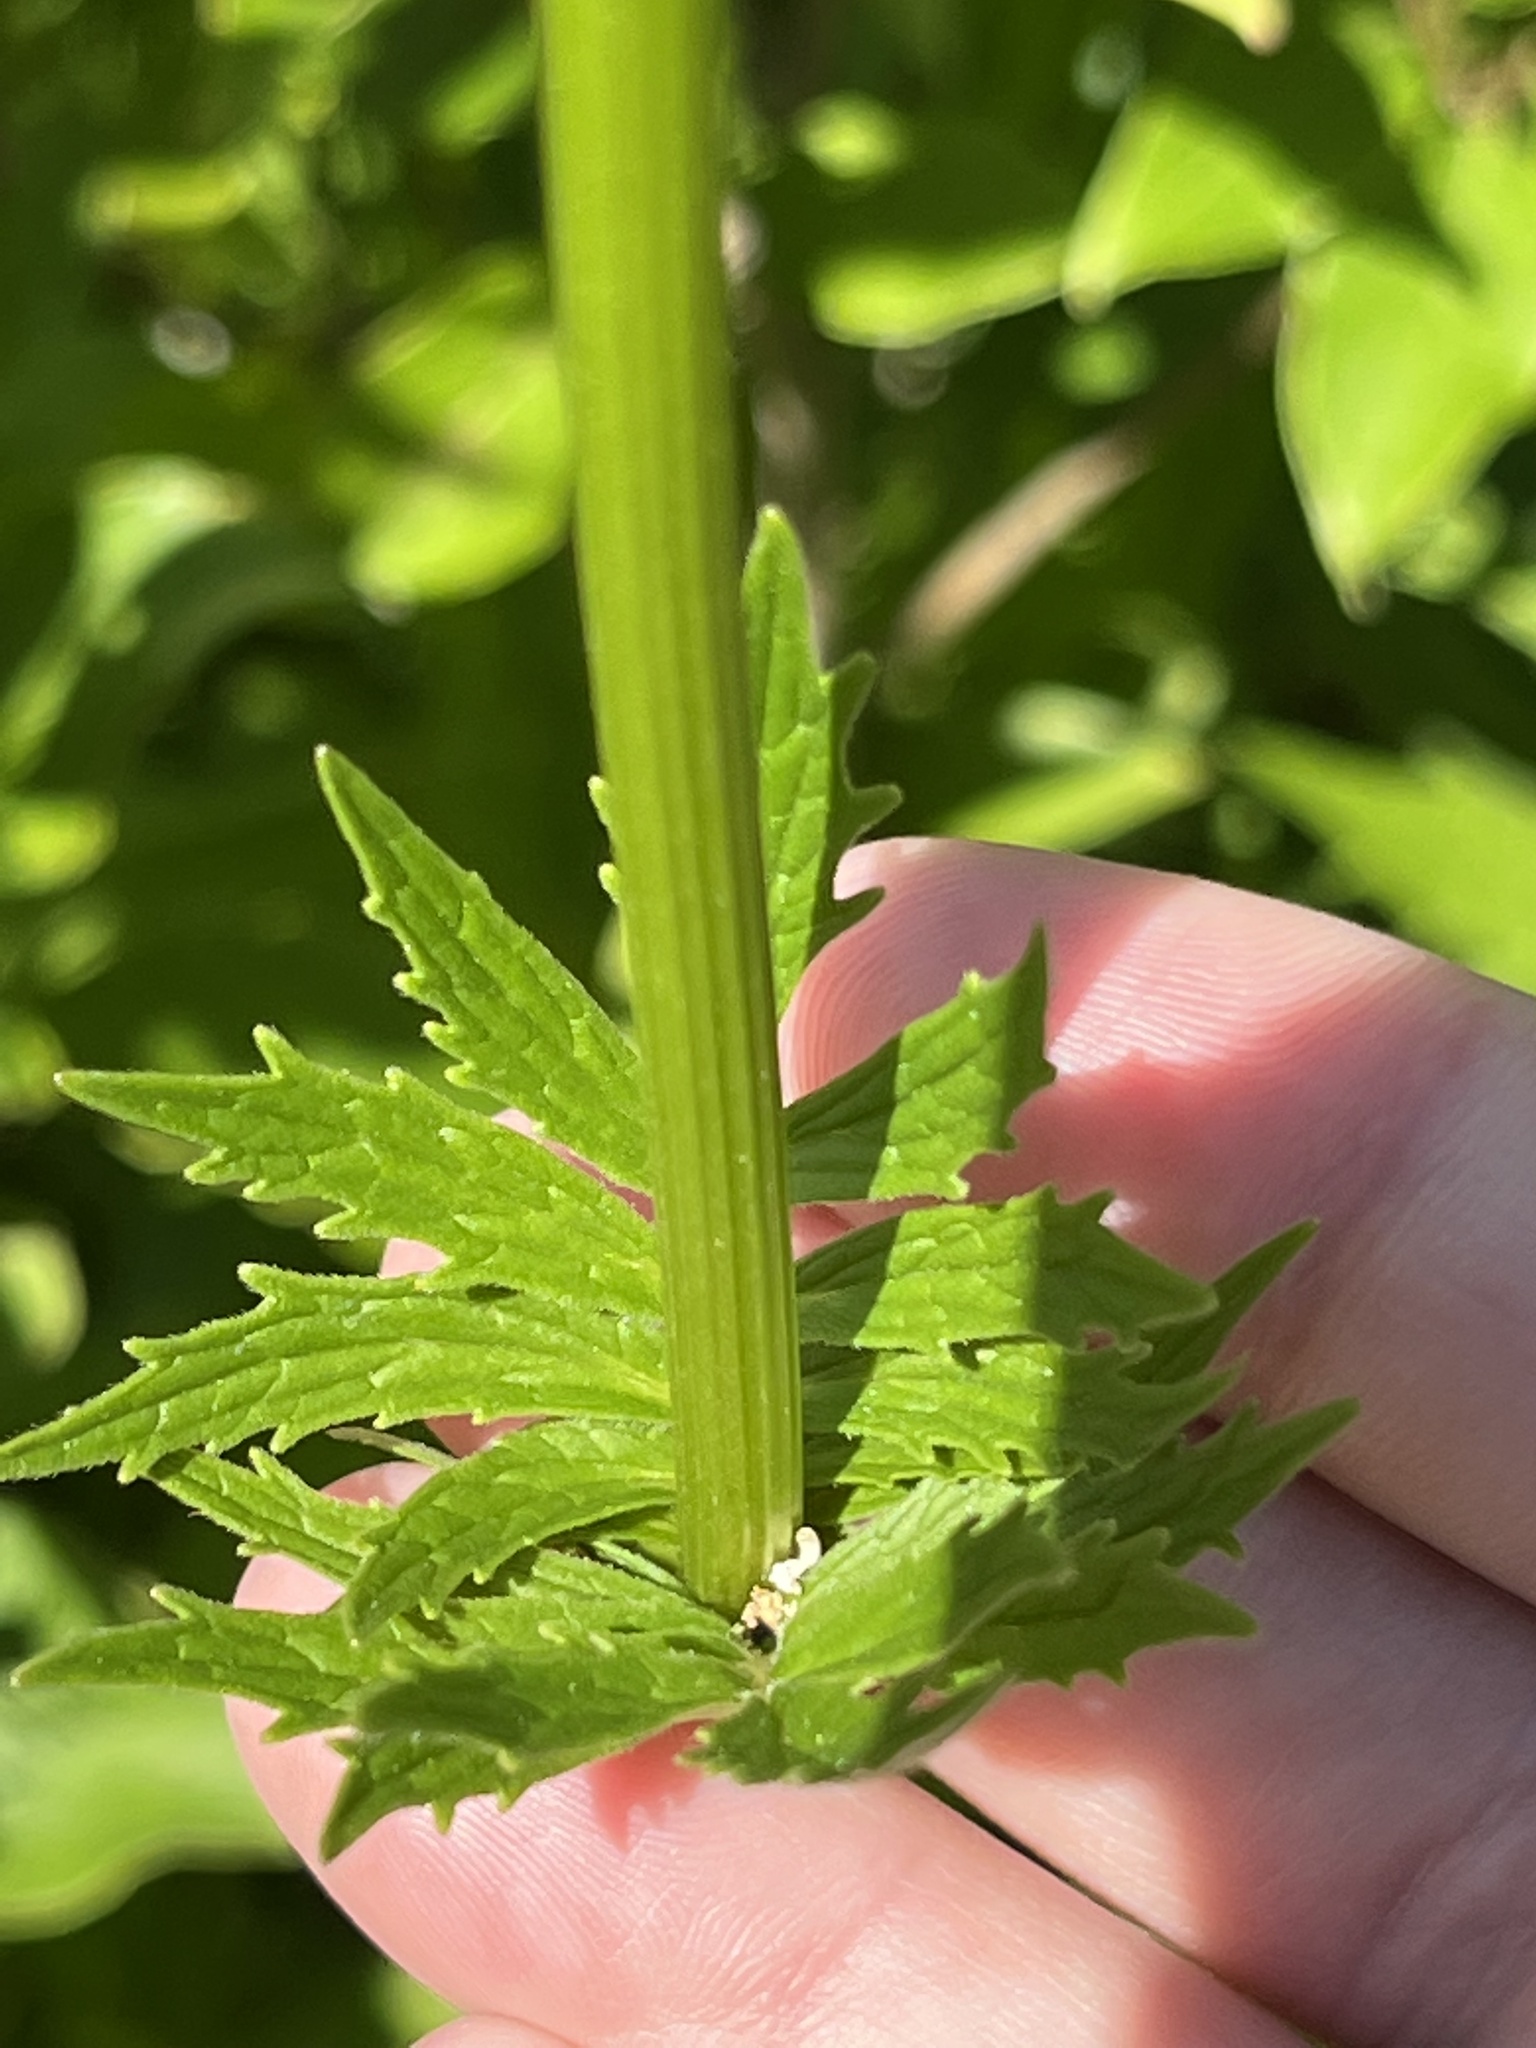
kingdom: Plantae
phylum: Tracheophyta
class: Magnoliopsida
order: Dipsacales
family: Caprifoliaceae
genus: Valeriana
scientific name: Valeriana officinalis
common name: Common valerian
